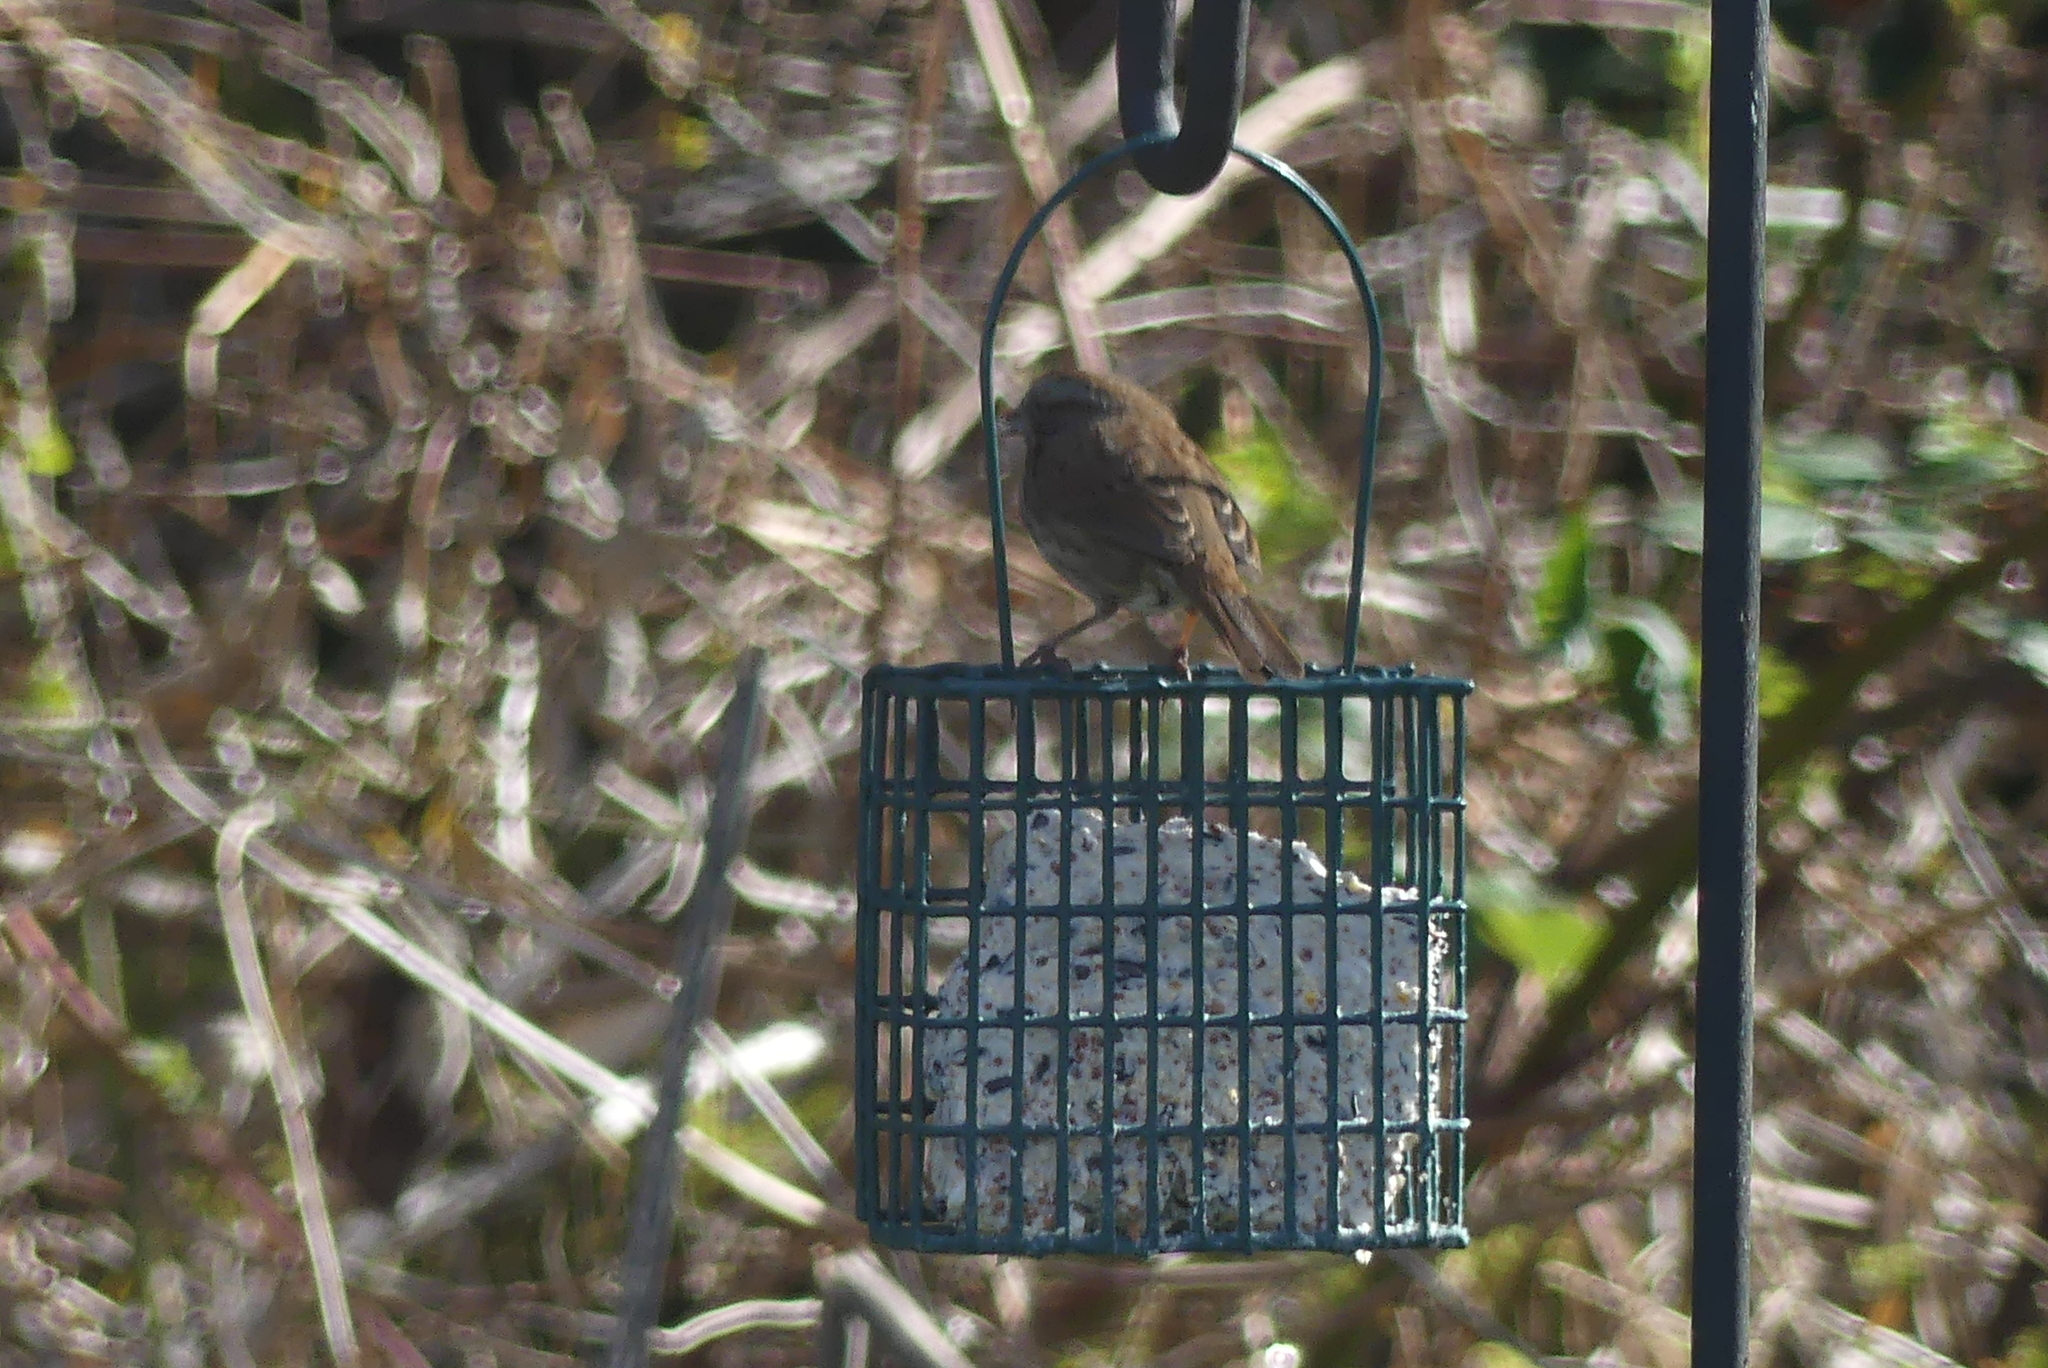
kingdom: Animalia
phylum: Chordata
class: Aves
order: Passeriformes
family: Passerellidae
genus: Melospiza
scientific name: Melospiza melodia
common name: Song sparrow
